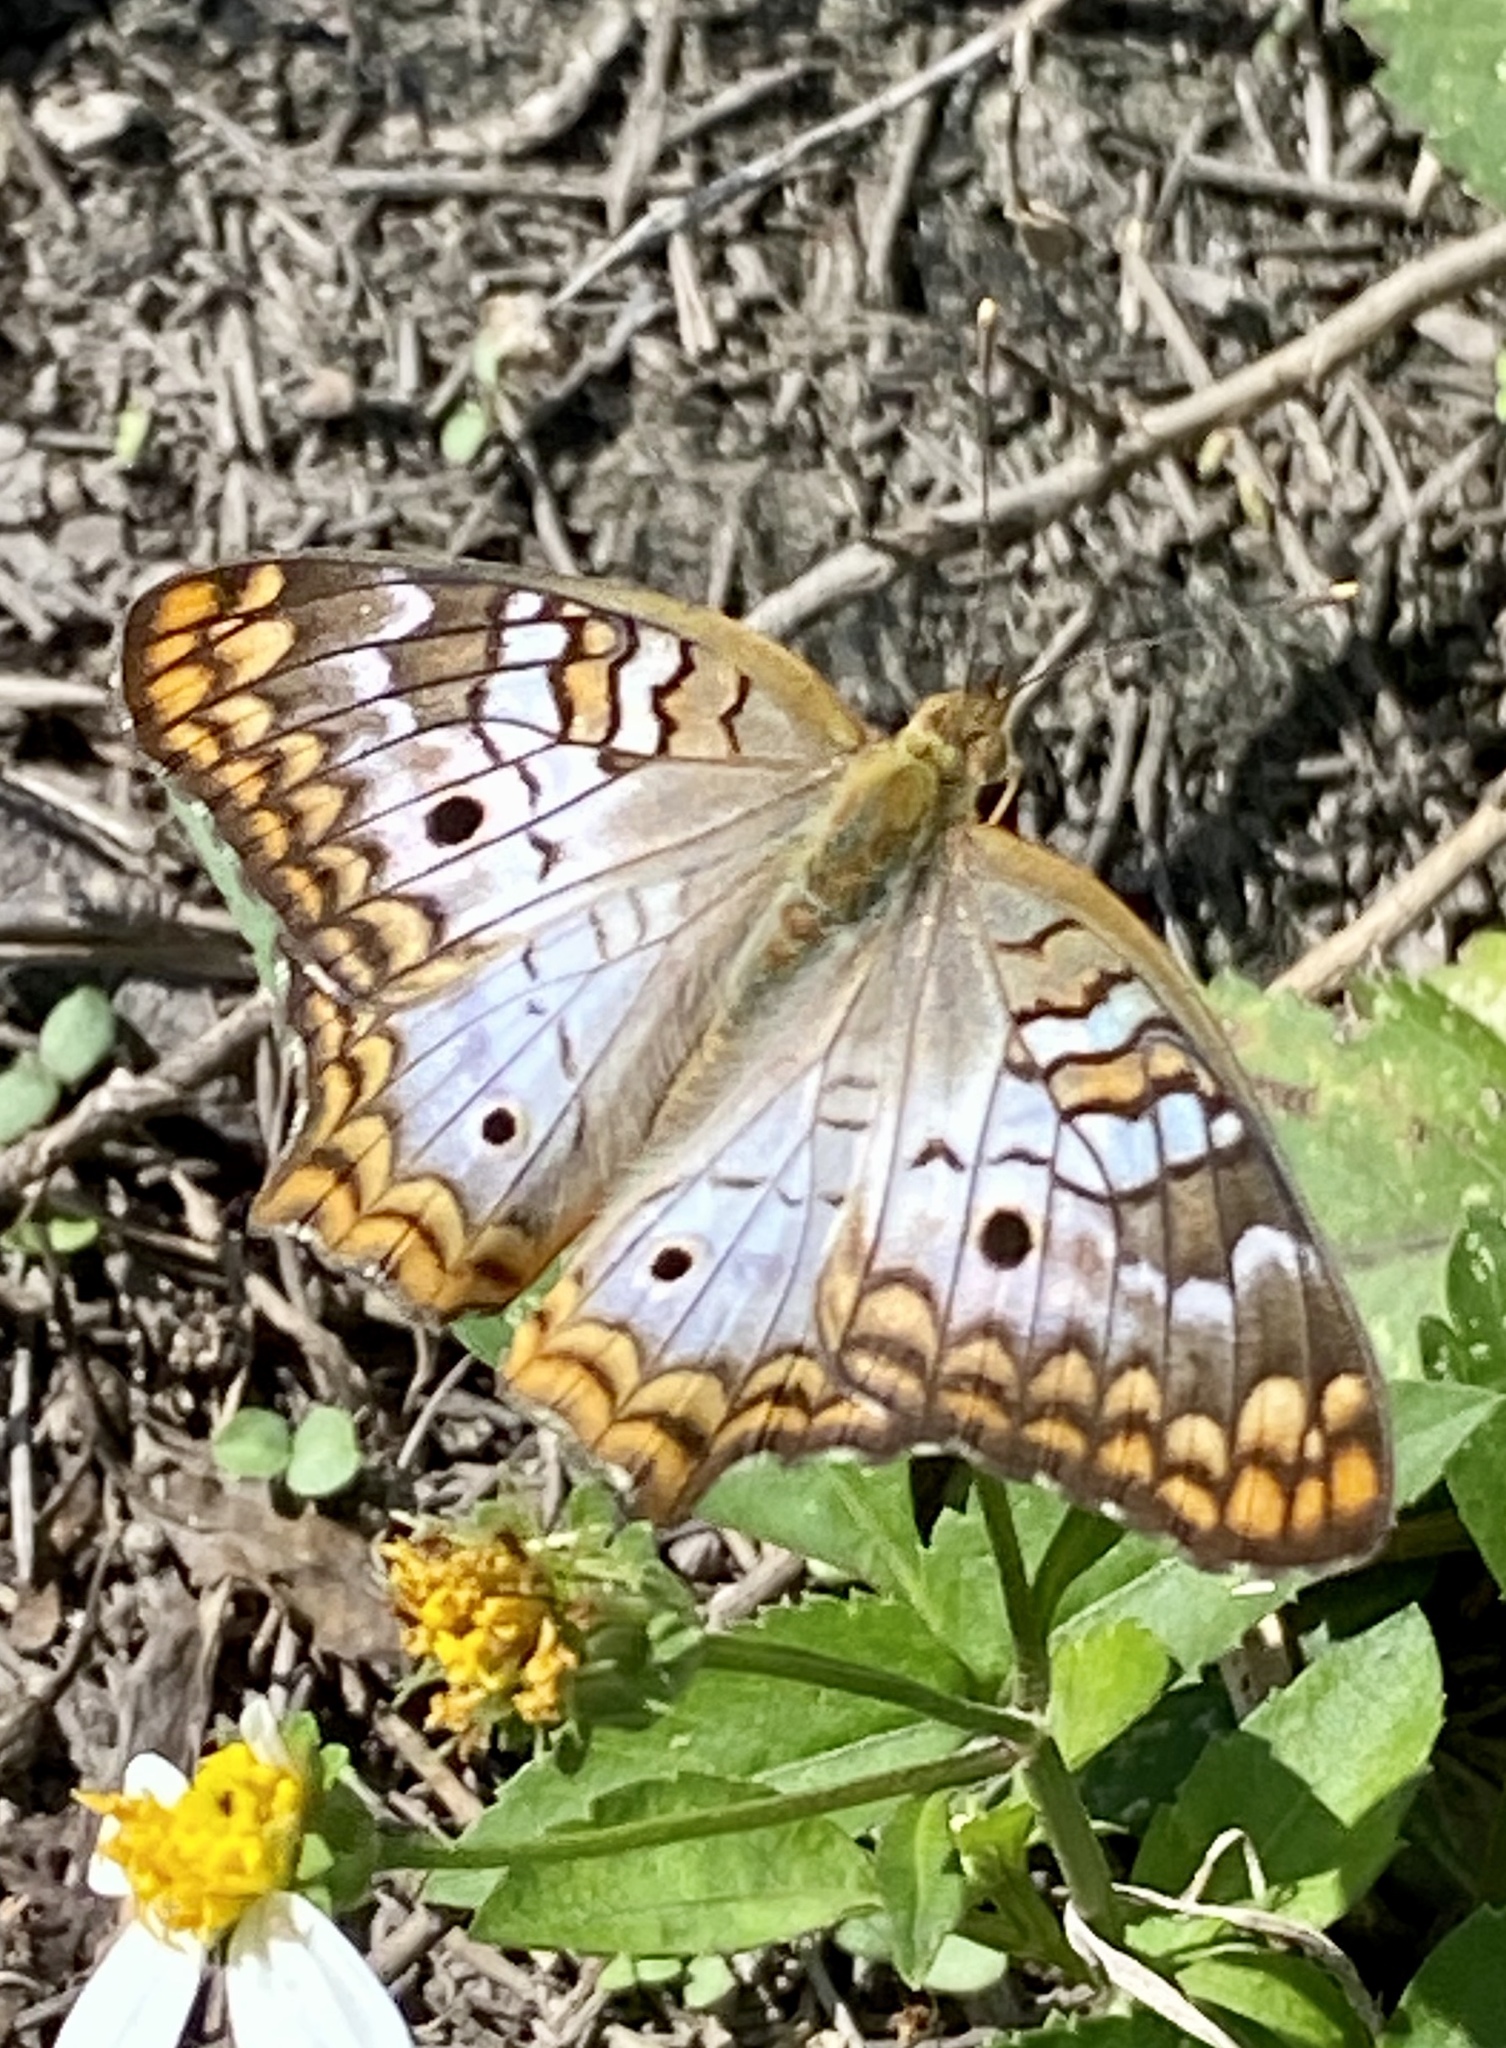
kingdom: Animalia
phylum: Arthropoda
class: Insecta
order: Lepidoptera
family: Nymphalidae
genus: Anartia
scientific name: Anartia jatrophae
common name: White peacock
